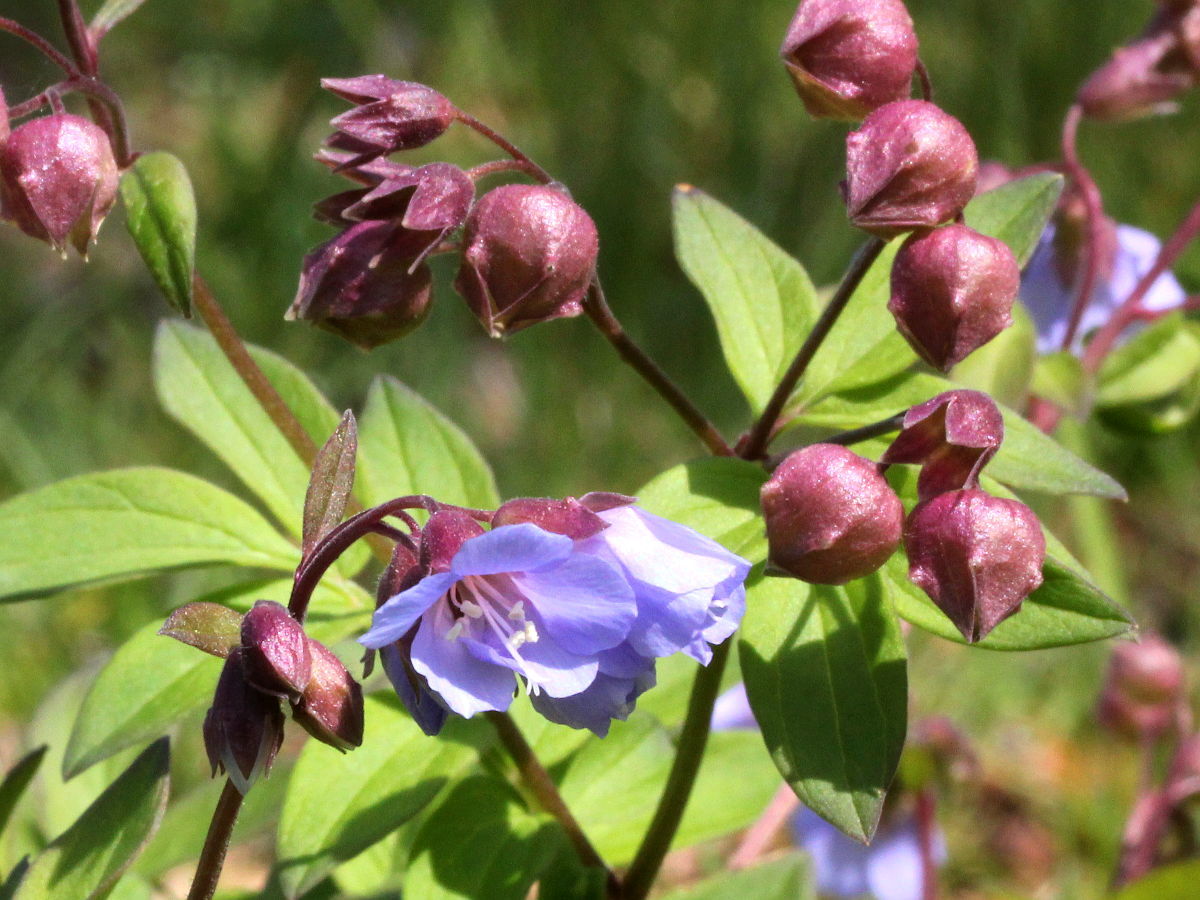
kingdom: Plantae
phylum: Tracheophyta
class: Magnoliopsida
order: Ericales
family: Polemoniaceae
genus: Polemonium
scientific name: Polemonium reptans
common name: Creeping jacob's-ladder
